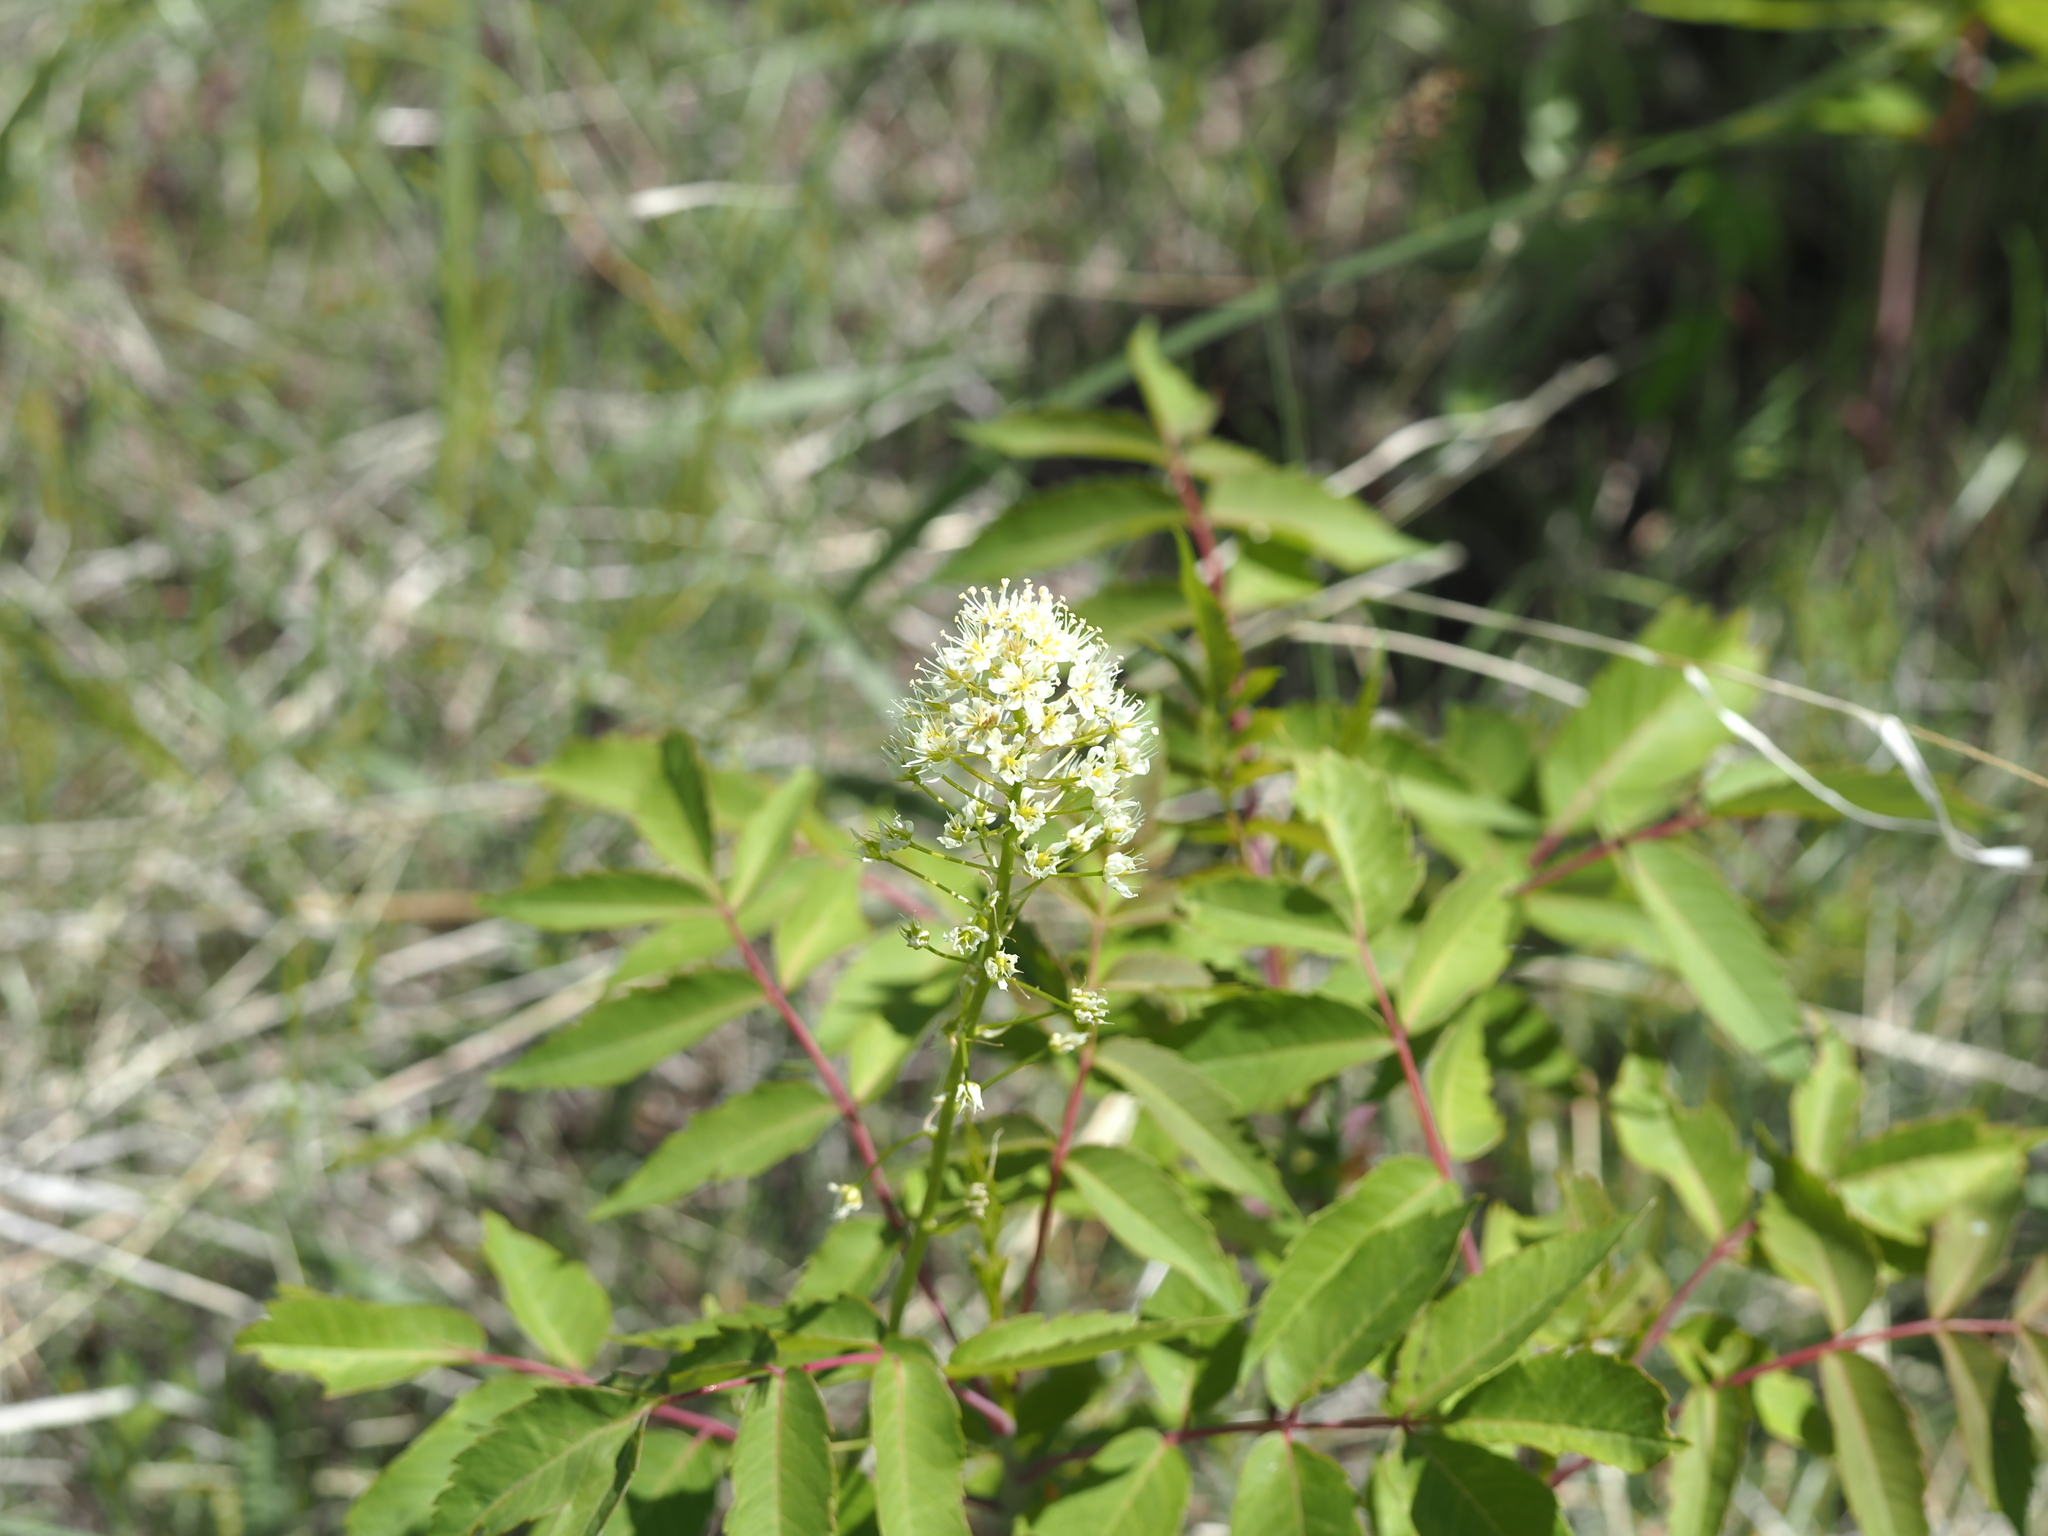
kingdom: Plantae
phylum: Tracheophyta
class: Liliopsida
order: Liliales
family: Melanthiaceae
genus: Toxicoscordion
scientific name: Toxicoscordion venenosum
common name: Meadow death camas
